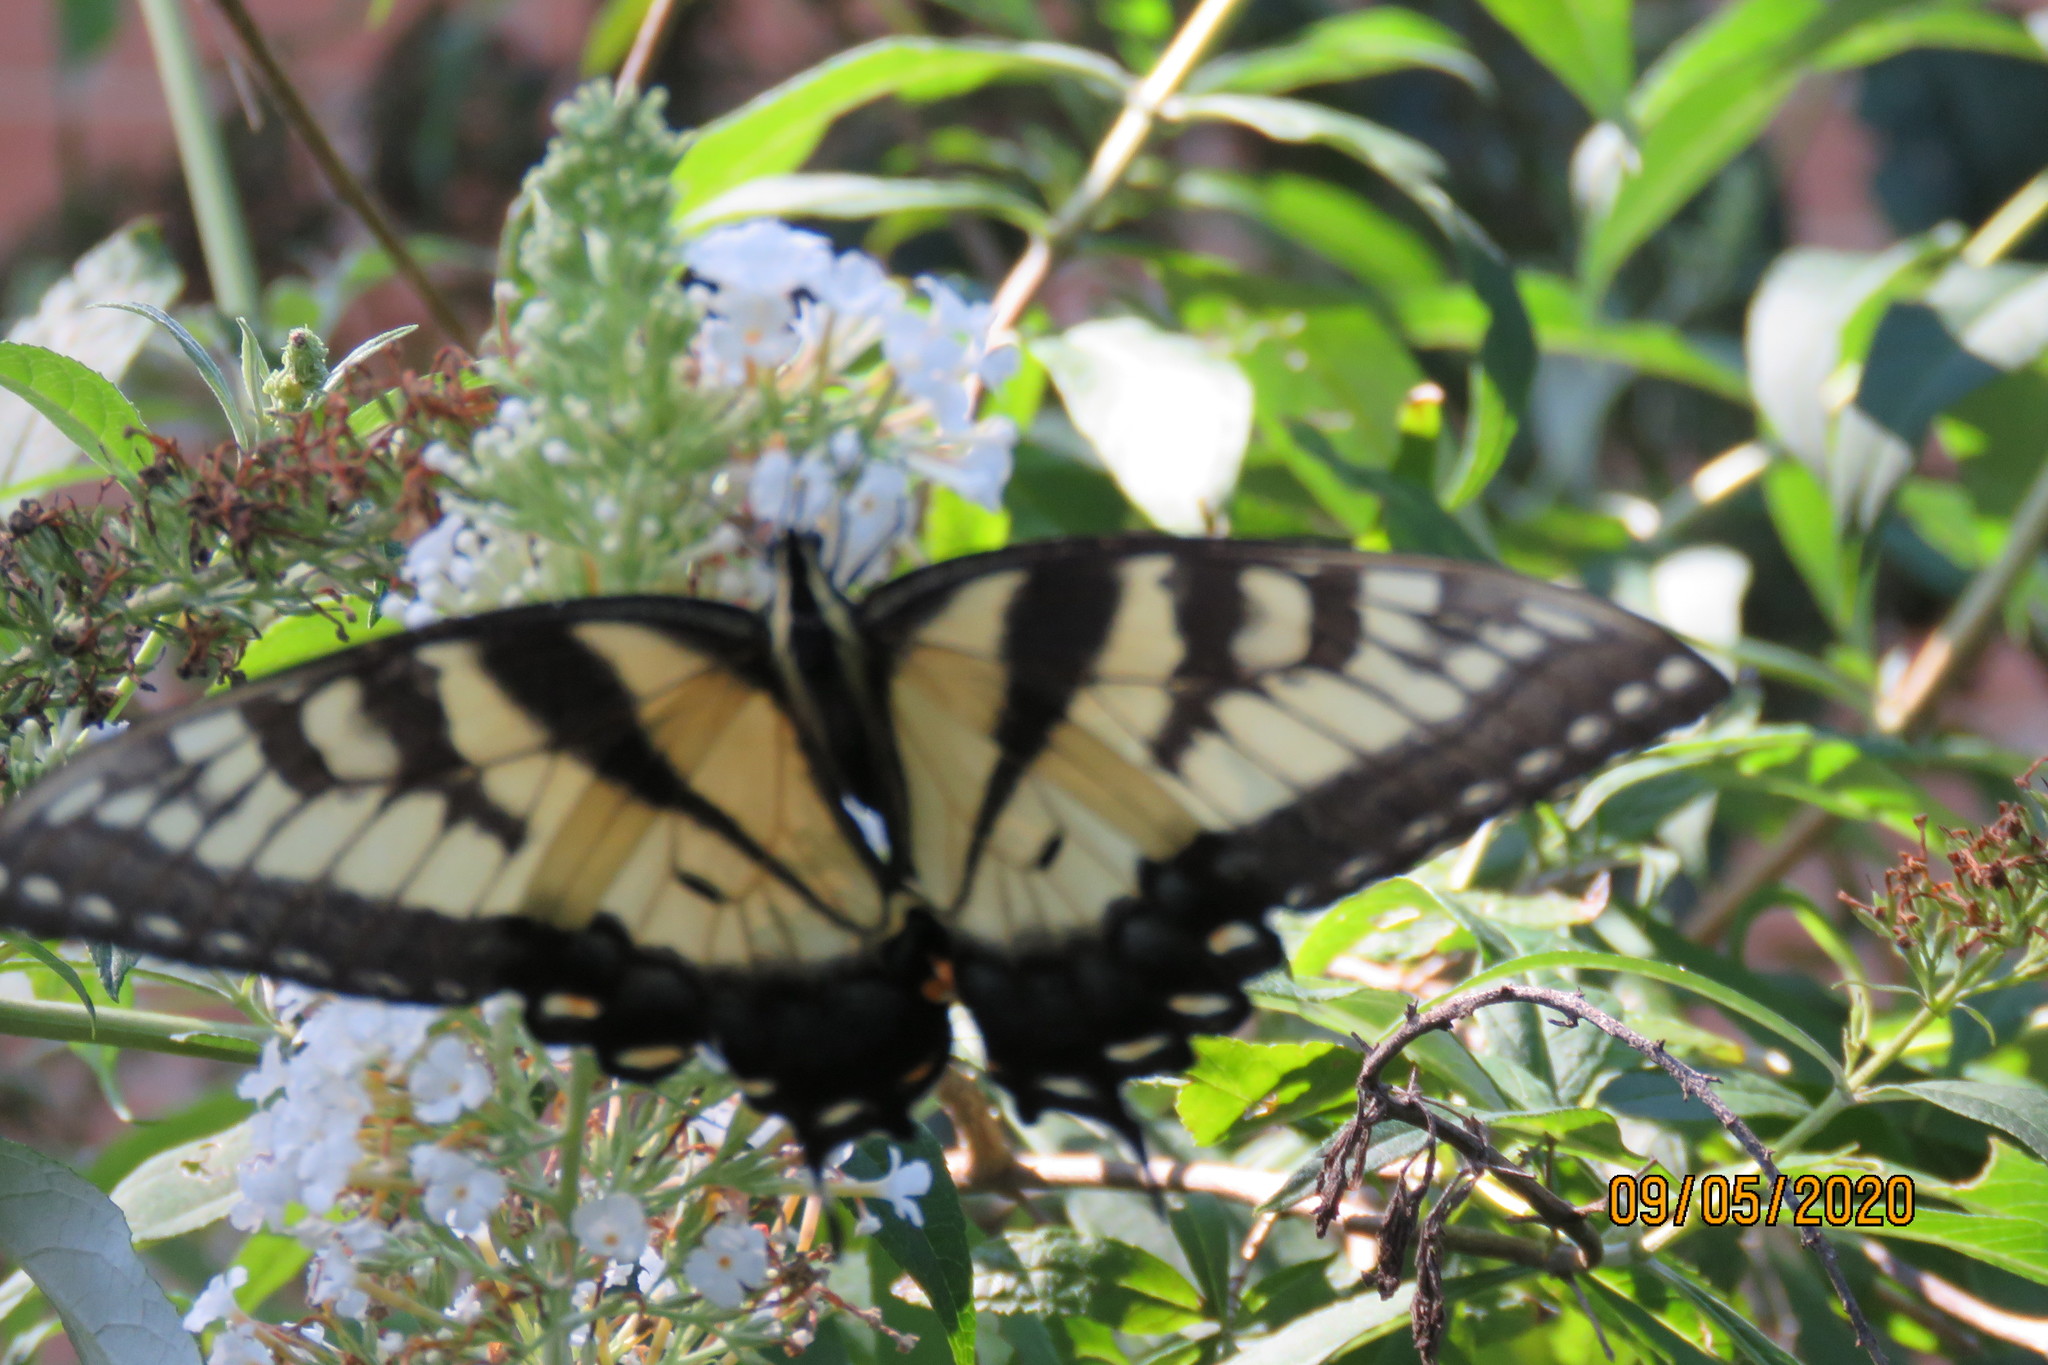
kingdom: Animalia
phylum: Arthropoda
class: Insecta
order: Lepidoptera
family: Papilionidae
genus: Papilio
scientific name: Papilio glaucus
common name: Tiger swallowtail
